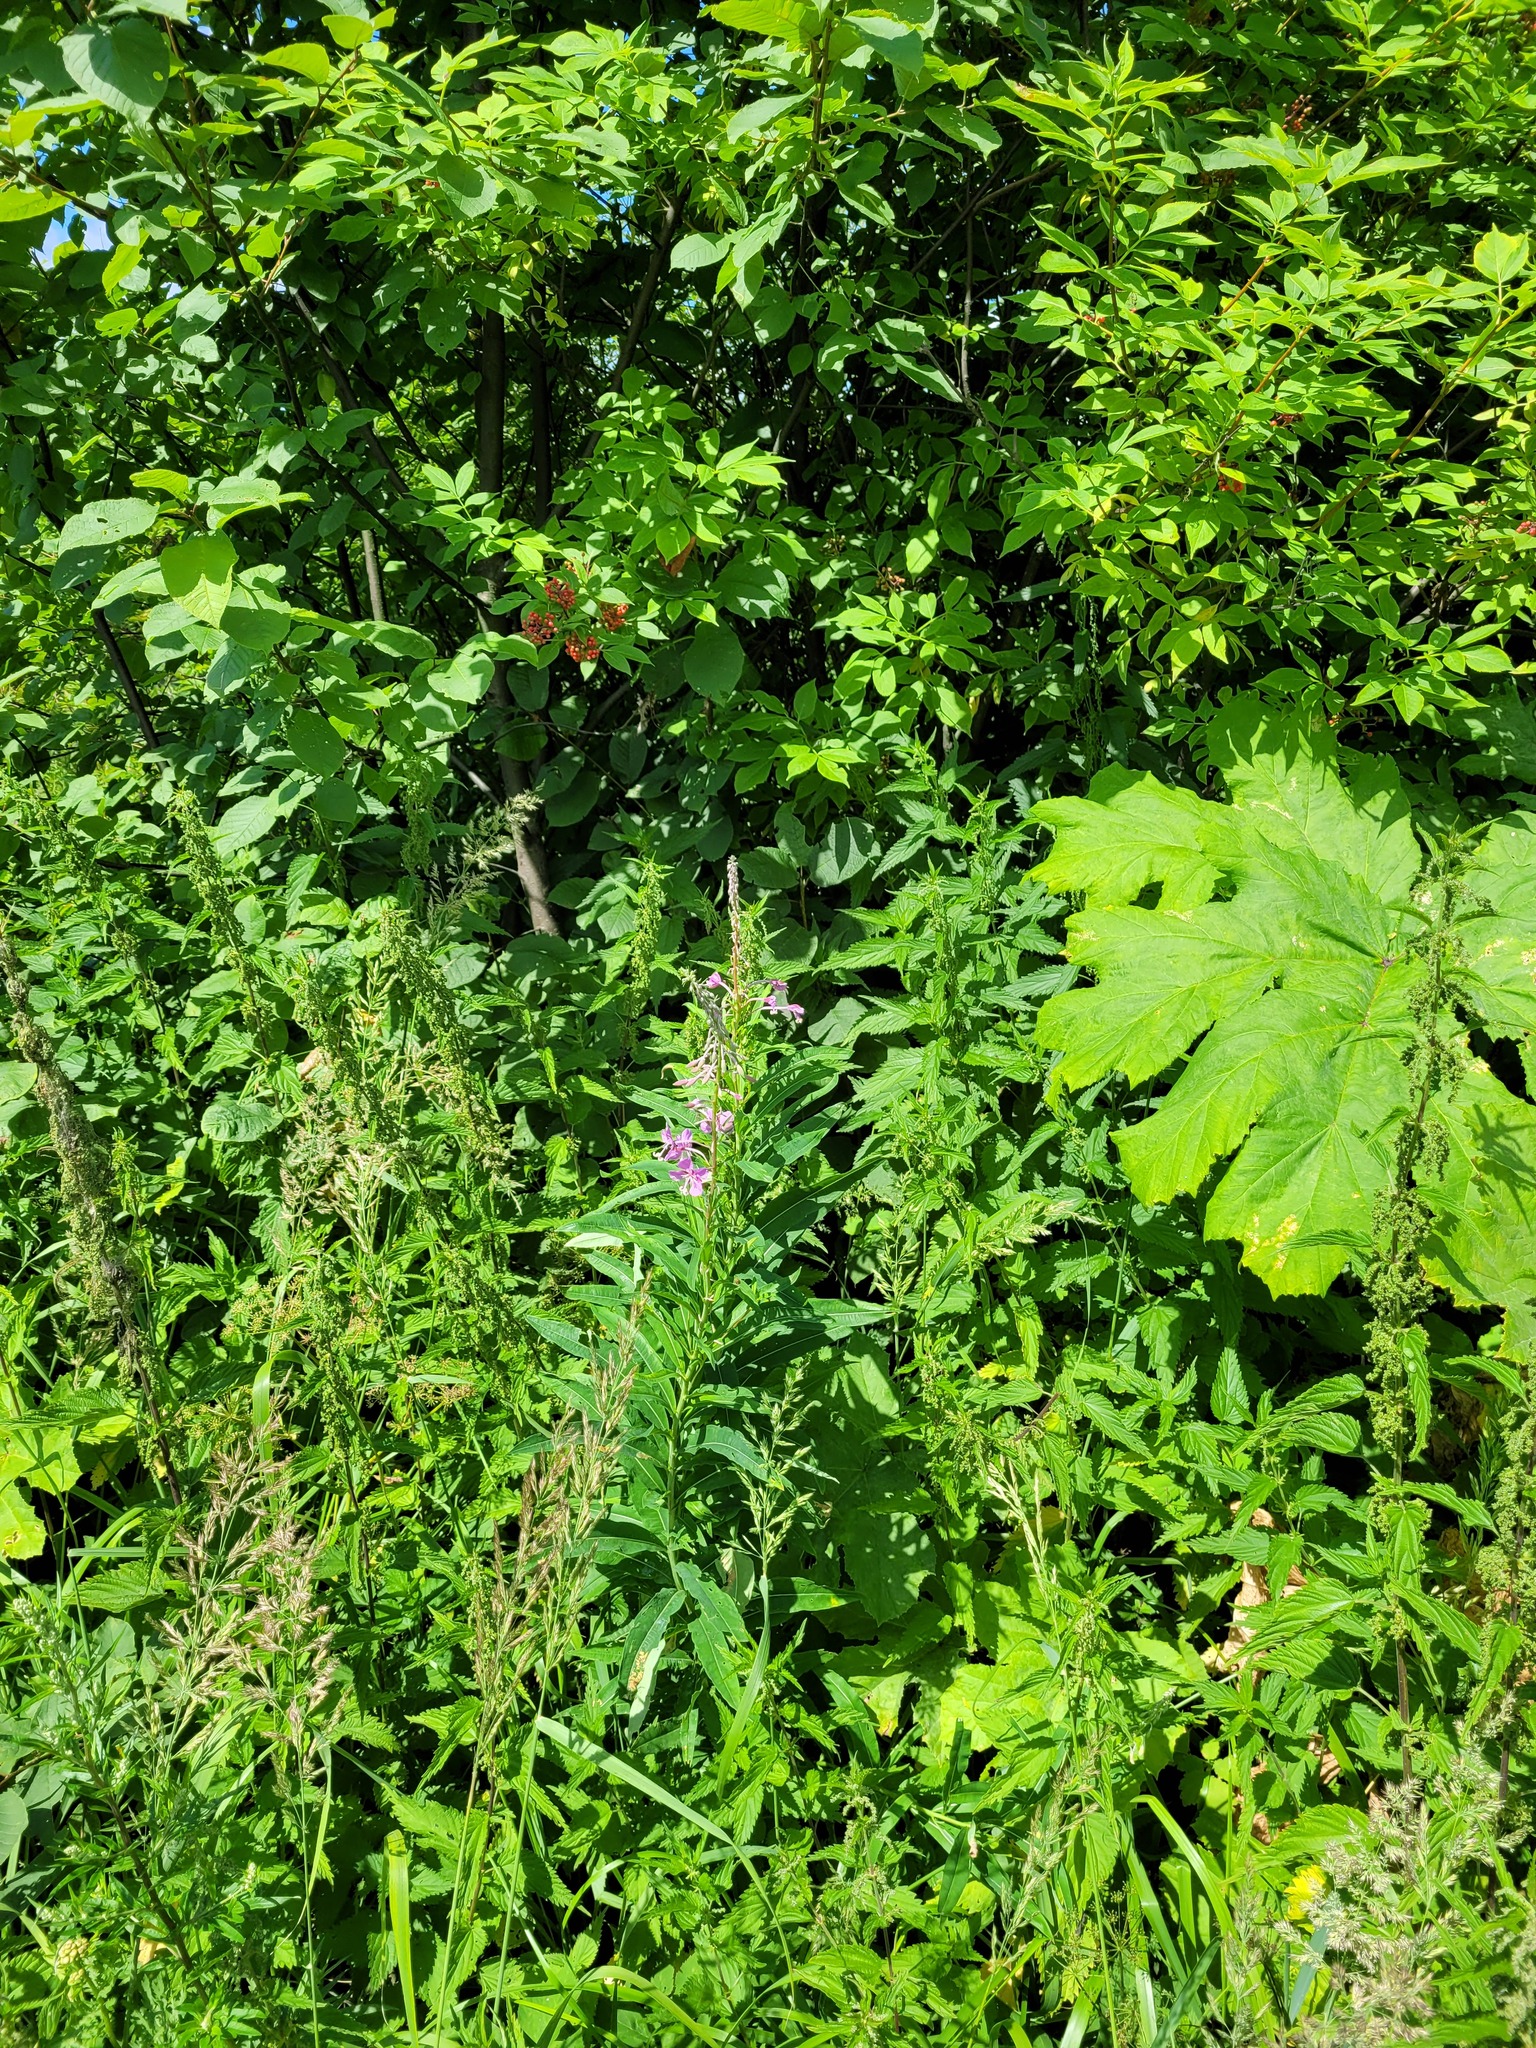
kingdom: Plantae
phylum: Tracheophyta
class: Magnoliopsida
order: Myrtales
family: Onagraceae
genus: Chamaenerion
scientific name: Chamaenerion angustifolium
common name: Fireweed
